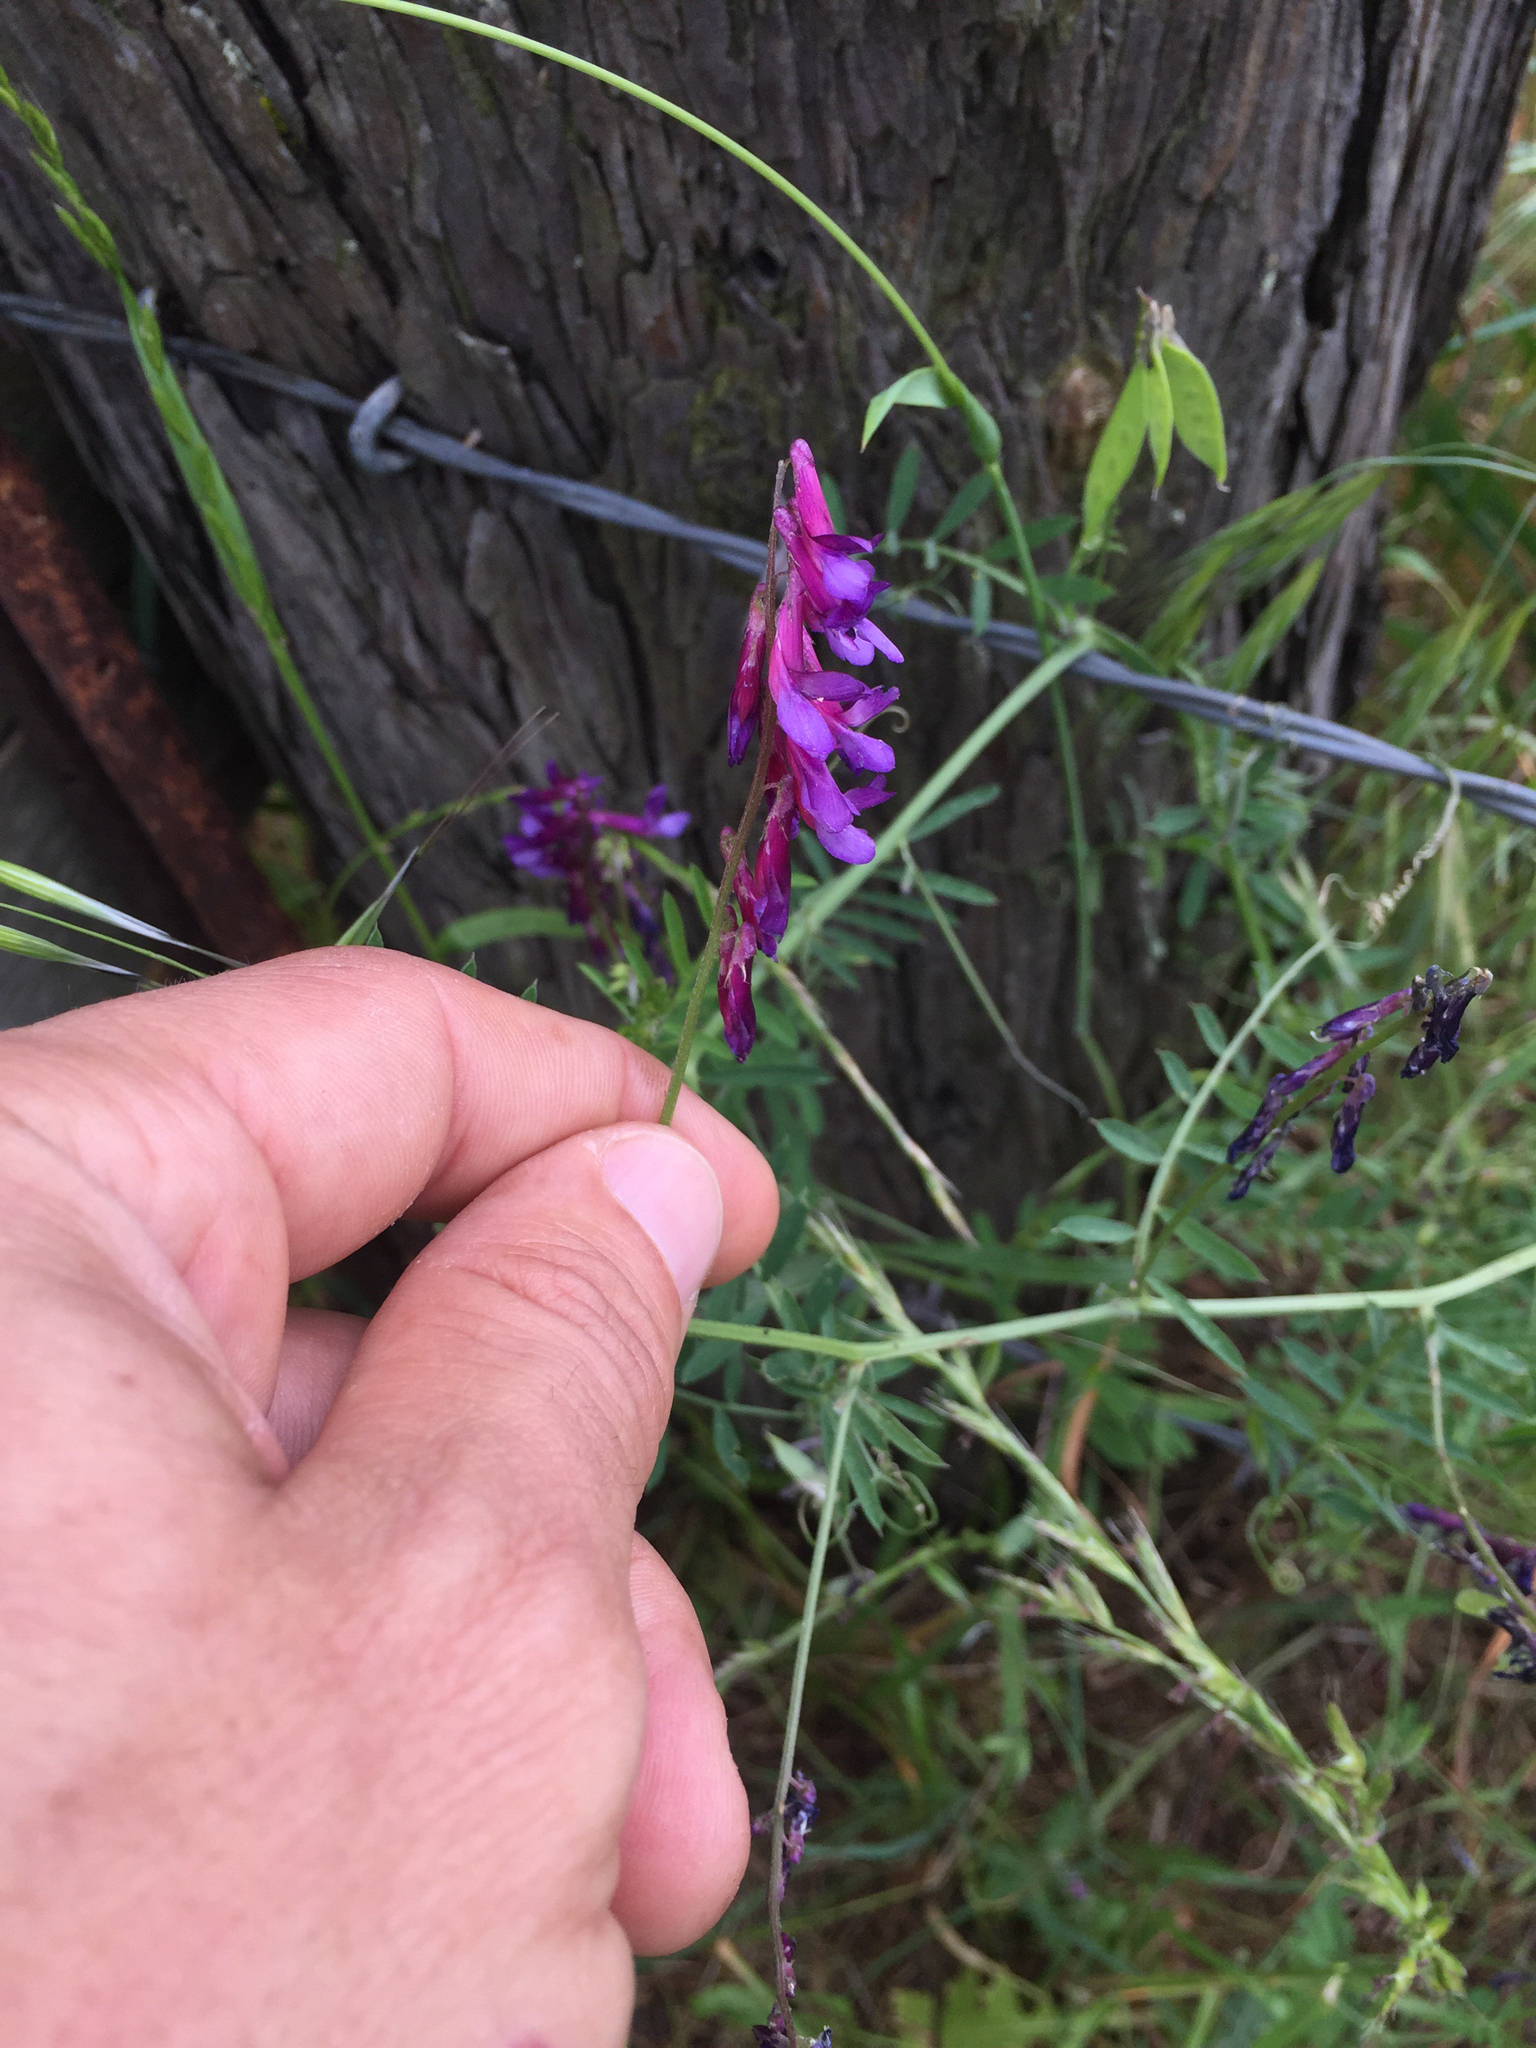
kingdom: Plantae
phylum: Tracheophyta
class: Magnoliopsida
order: Fabales
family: Fabaceae
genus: Vicia
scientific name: Vicia villosa
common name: Fodder vetch
